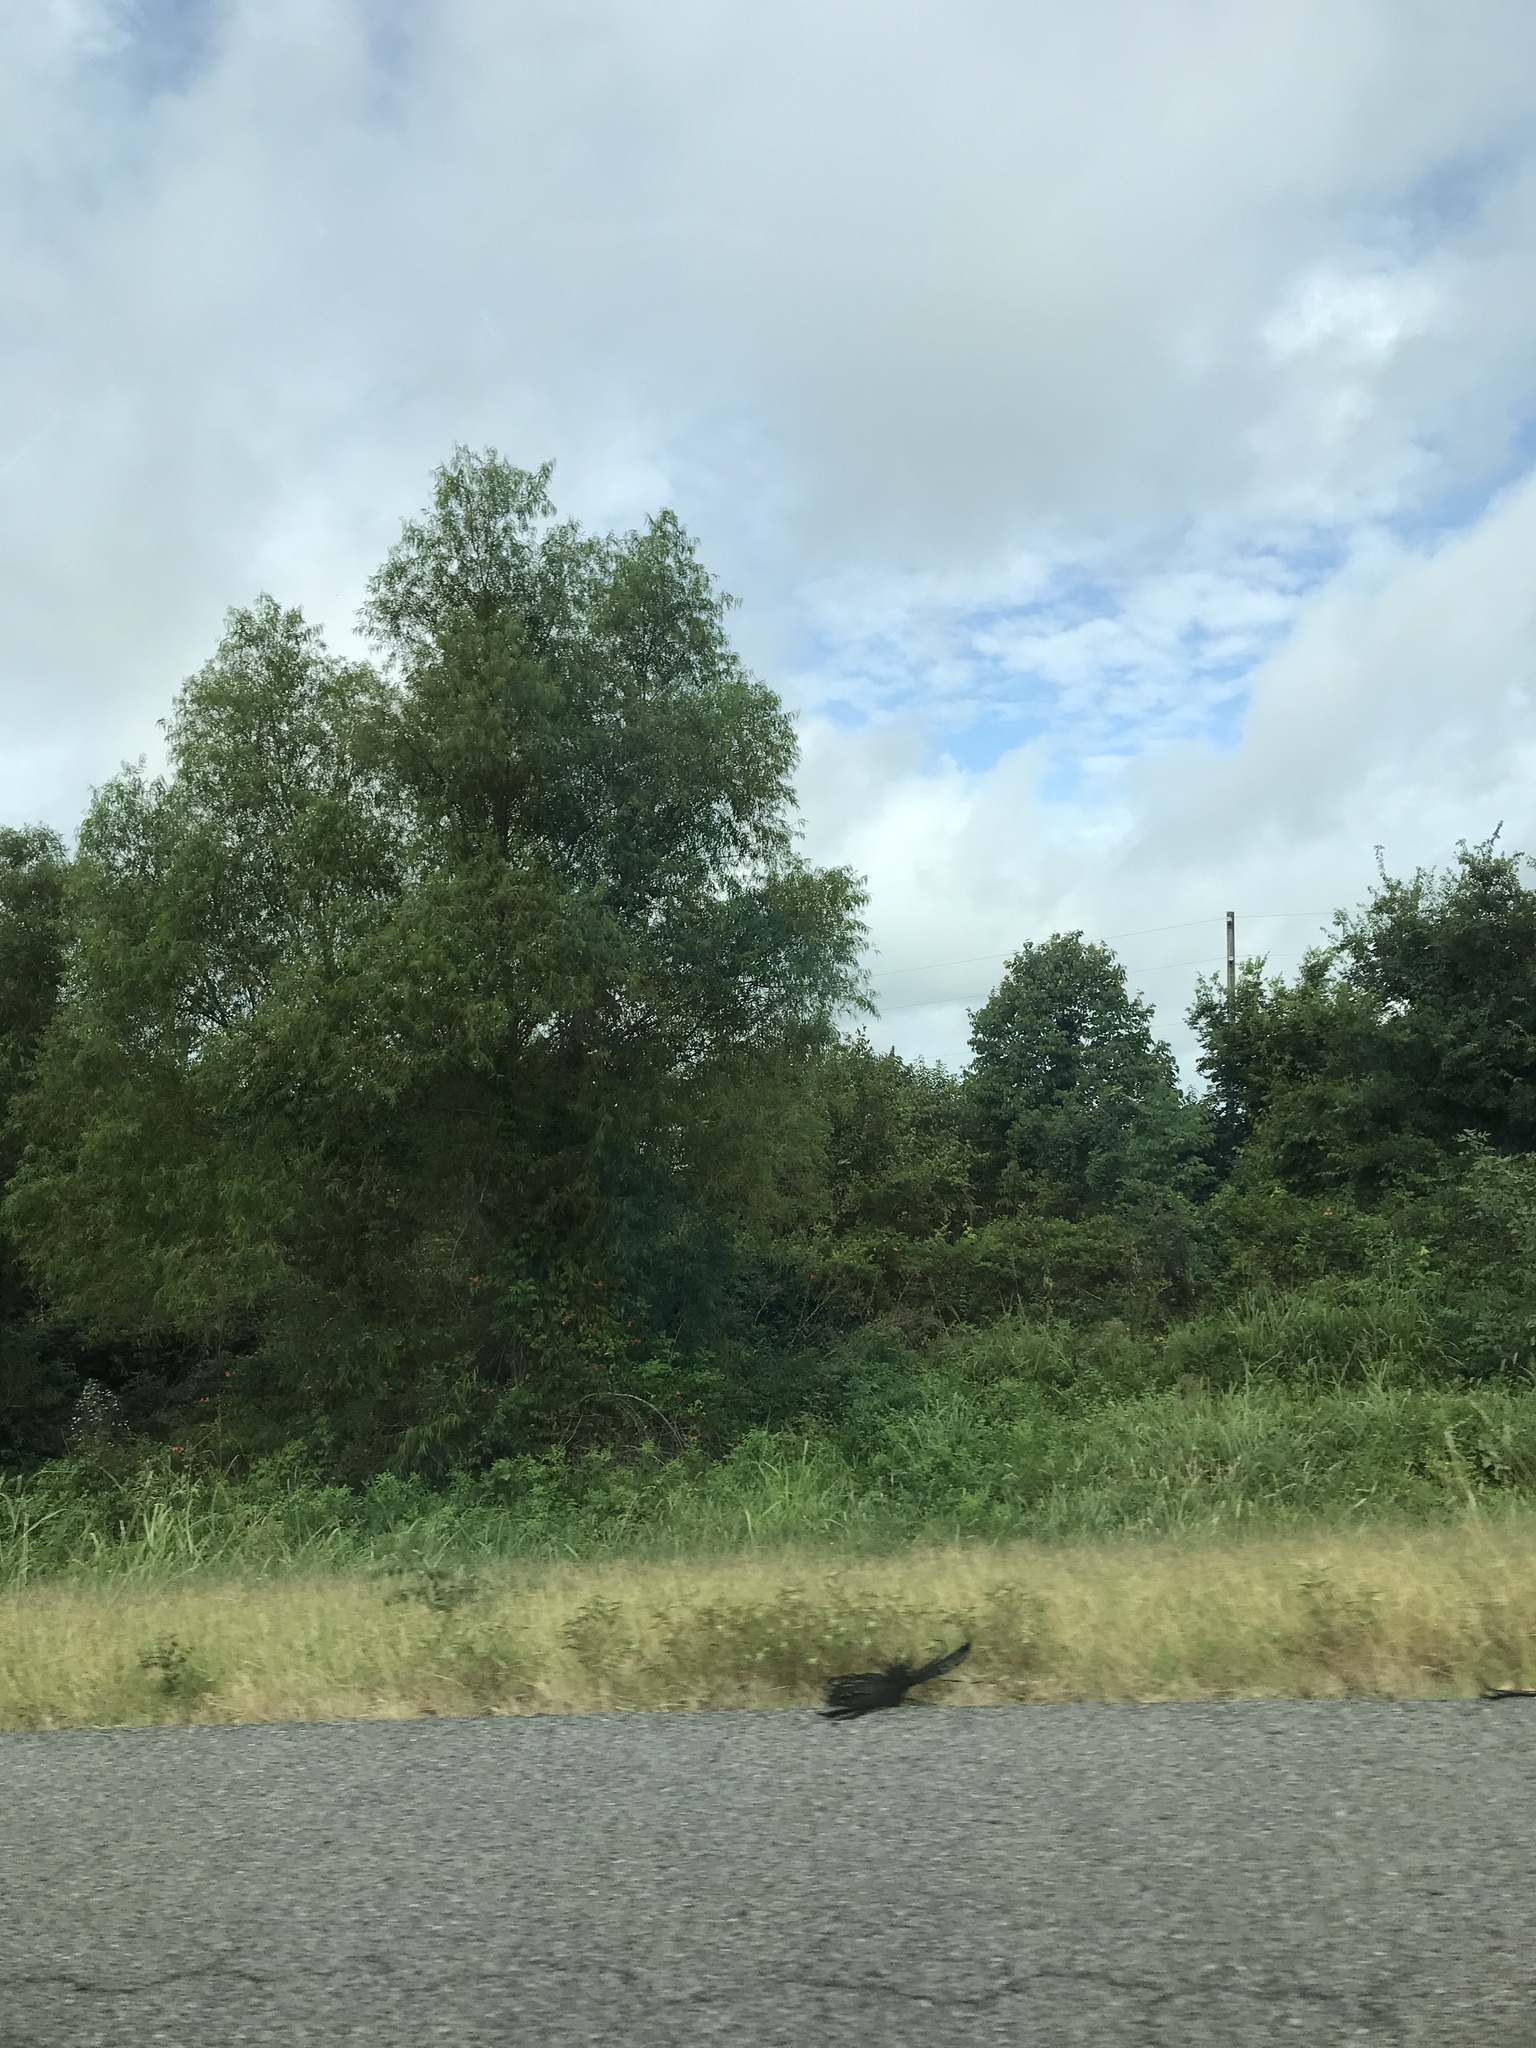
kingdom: Plantae
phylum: Tracheophyta
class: Magnoliopsida
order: Malpighiales
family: Salicaceae
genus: Salix
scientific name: Salix nigra
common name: Black willow
